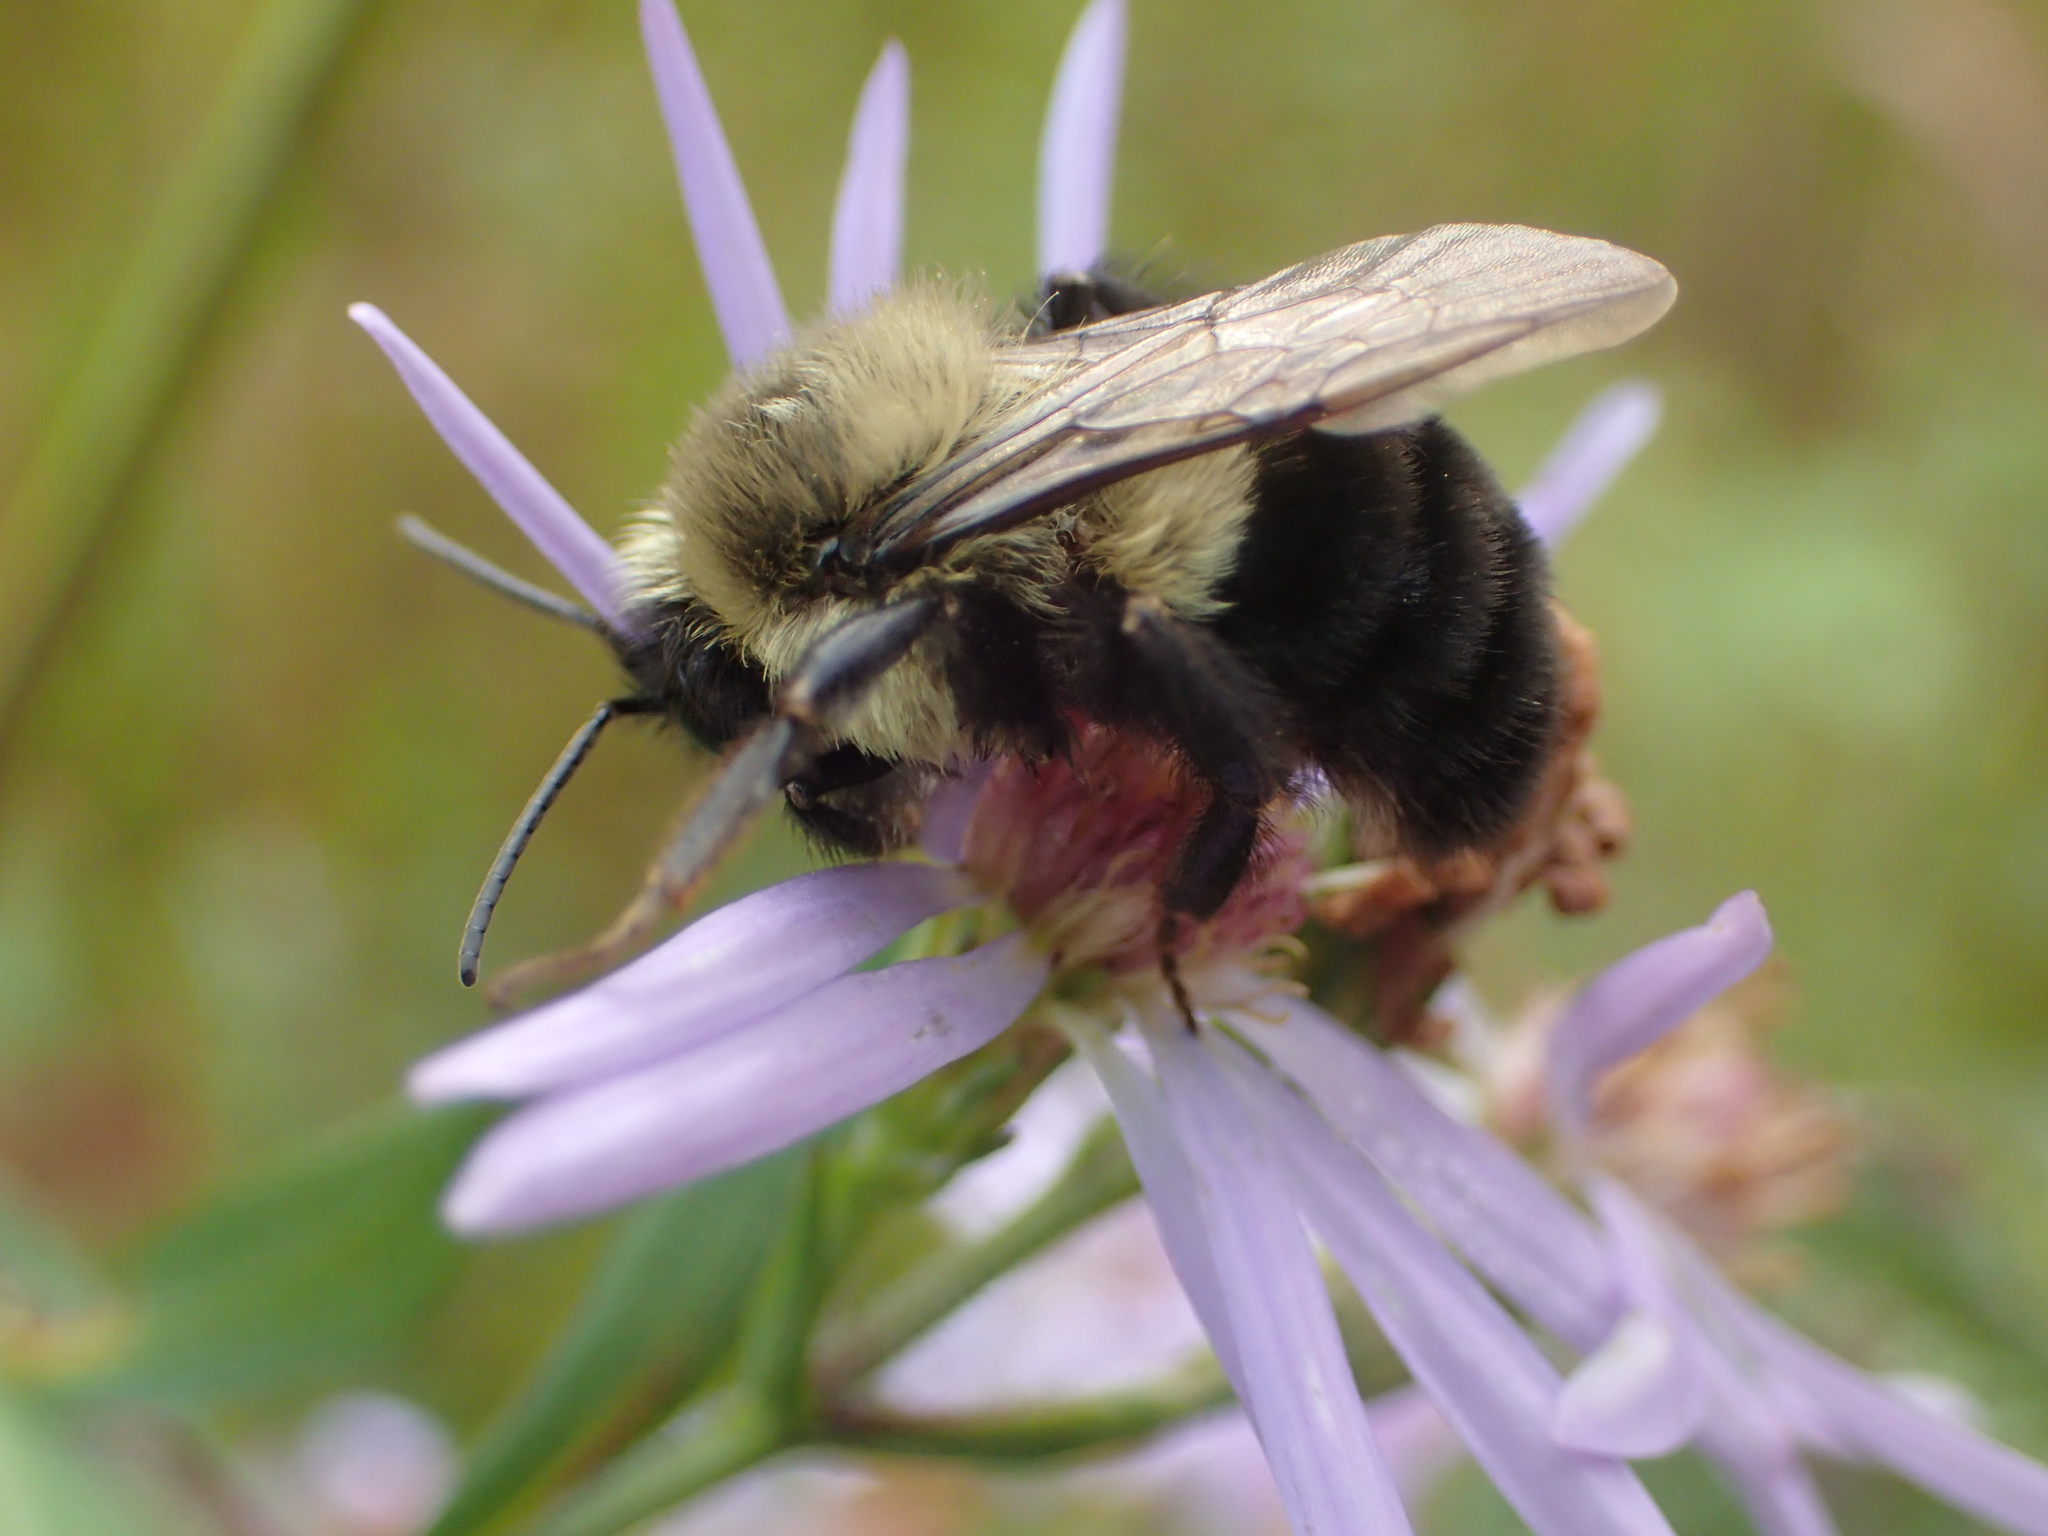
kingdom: Animalia
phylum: Arthropoda
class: Insecta
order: Hymenoptera
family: Apidae
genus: Bombus
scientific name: Bombus impatiens
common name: Common eastern bumble bee
